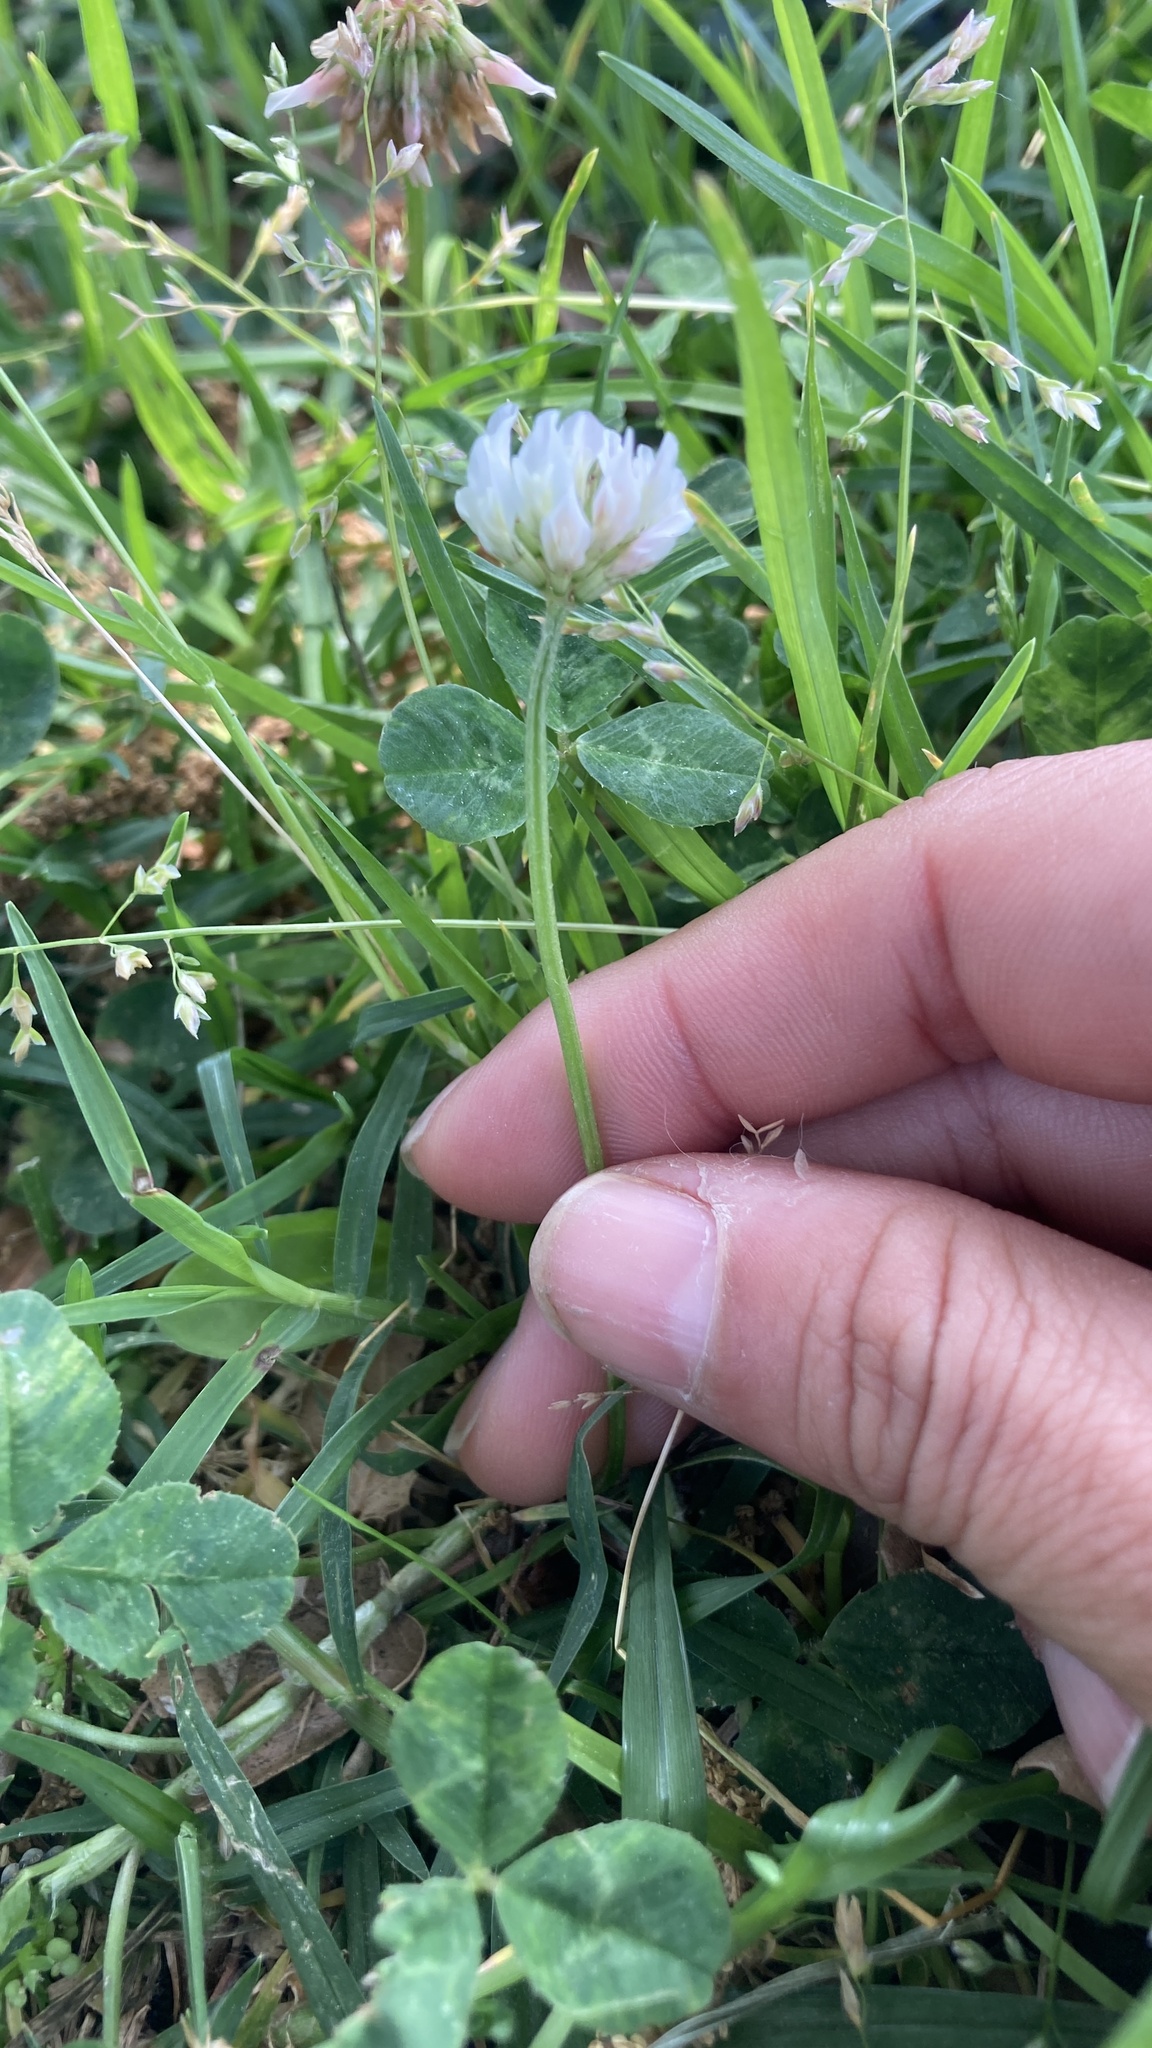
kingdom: Plantae
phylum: Tracheophyta
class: Magnoliopsida
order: Fabales
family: Fabaceae
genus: Trifolium
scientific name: Trifolium repens
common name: White clover
